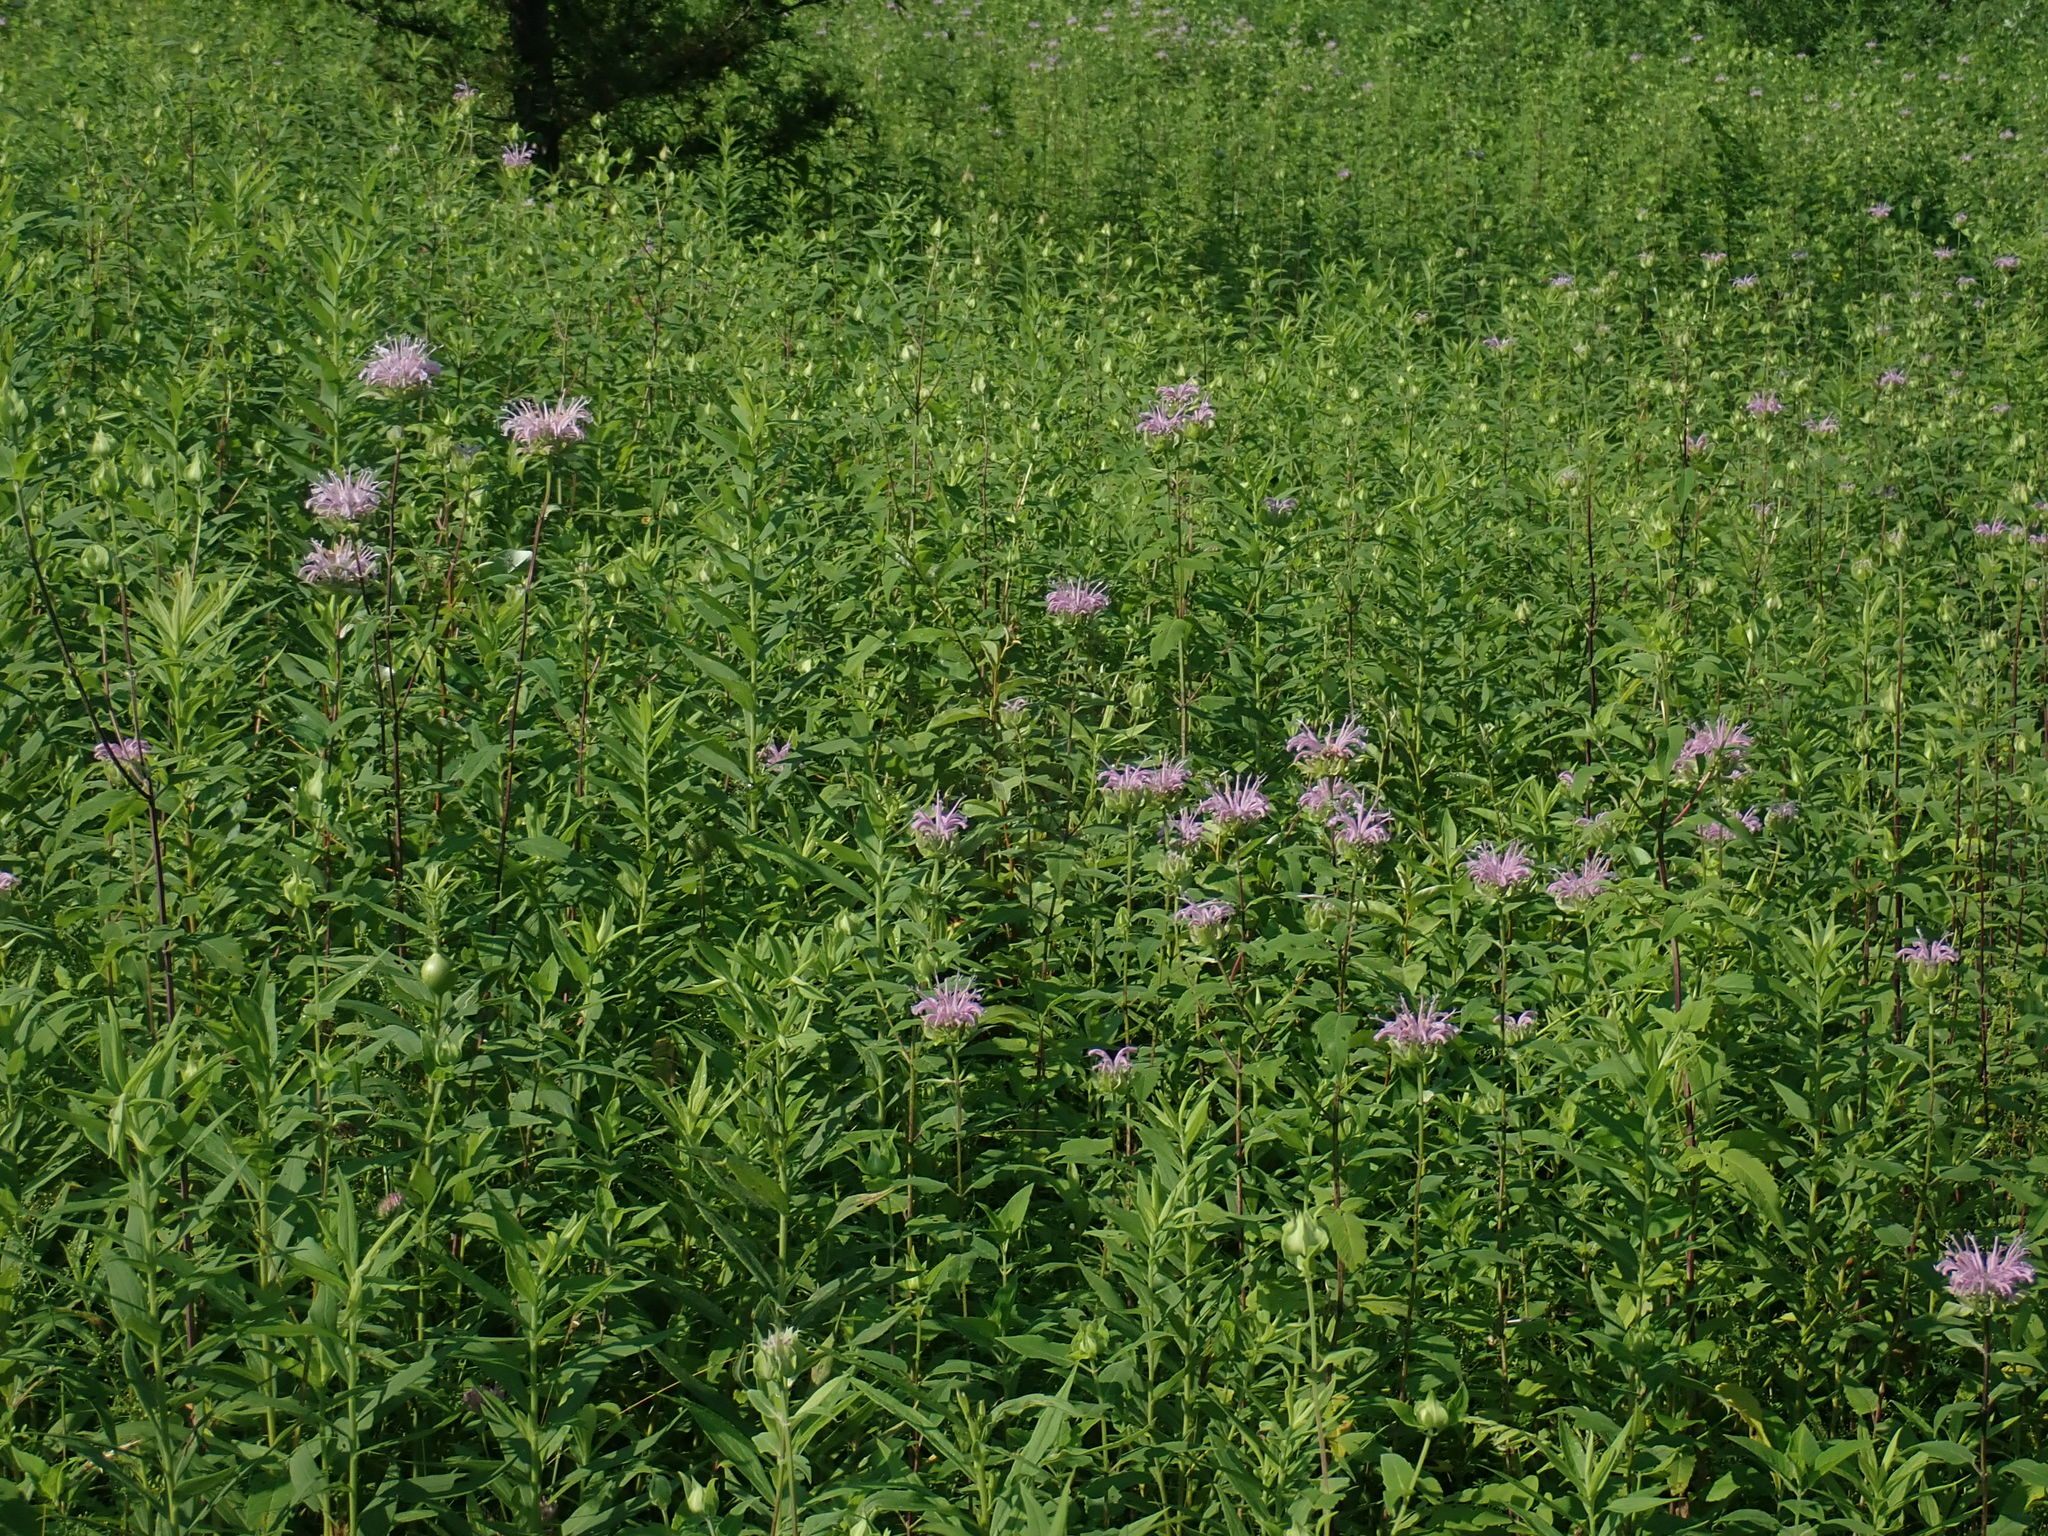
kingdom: Plantae
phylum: Tracheophyta
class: Magnoliopsida
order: Lamiales
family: Lamiaceae
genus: Monarda
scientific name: Monarda fistulosa
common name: Purple beebalm
